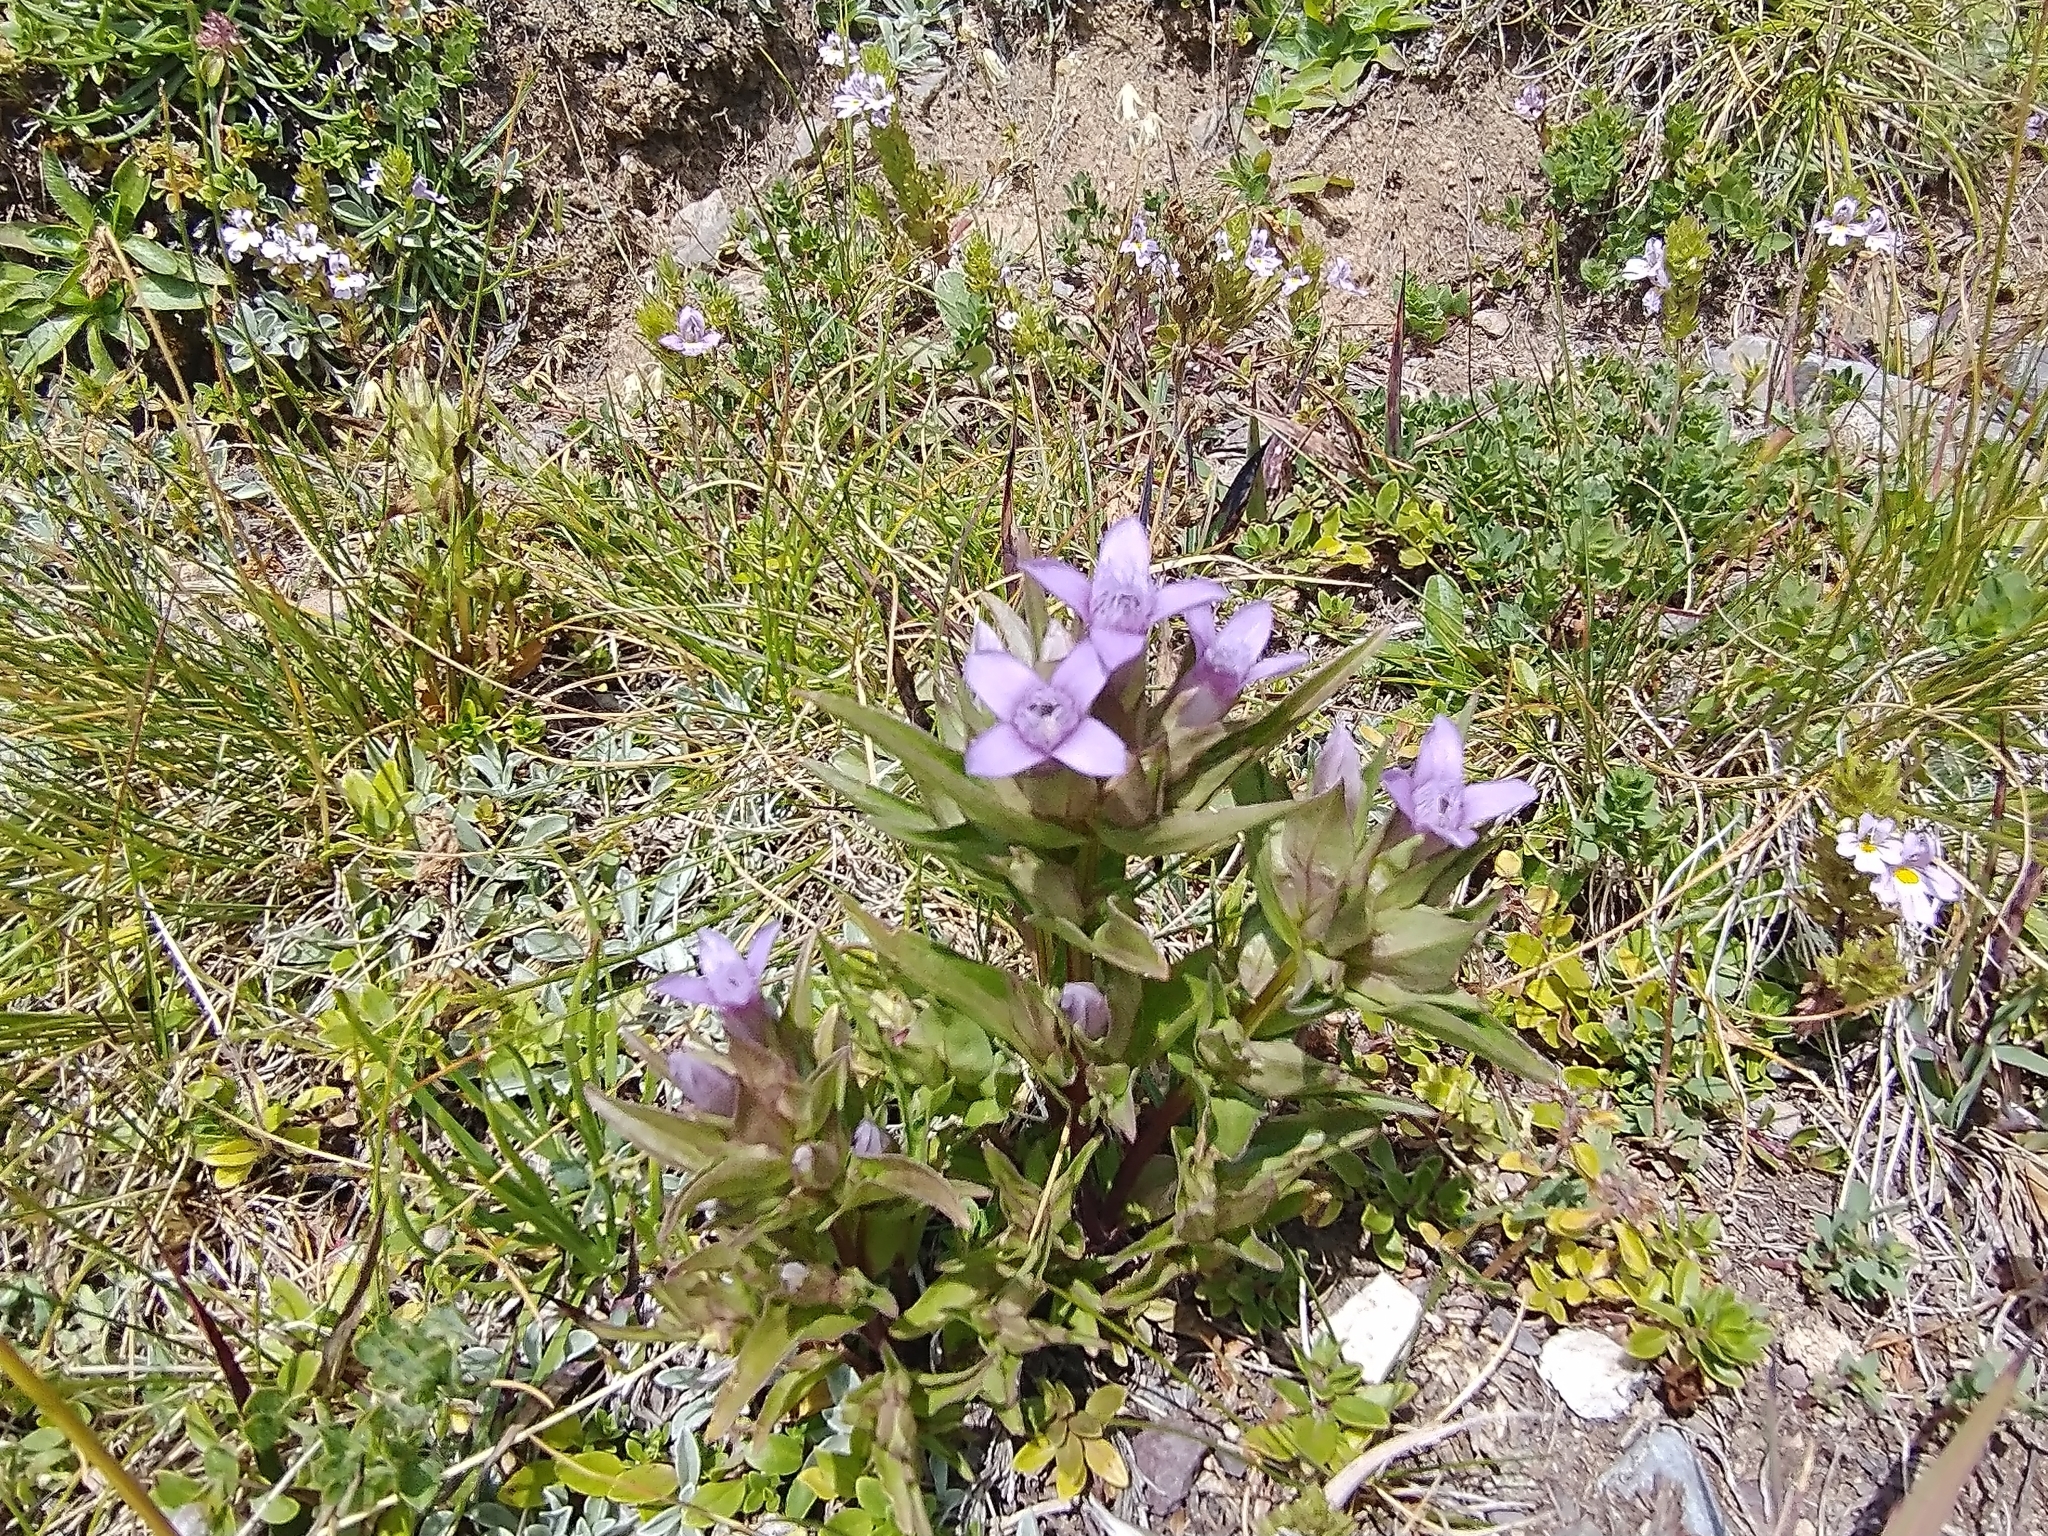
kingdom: Plantae
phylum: Tracheophyta
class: Magnoliopsida
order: Gentianales
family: Gentianaceae
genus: Gentianella
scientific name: Gentianella campestris
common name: Field gentian
